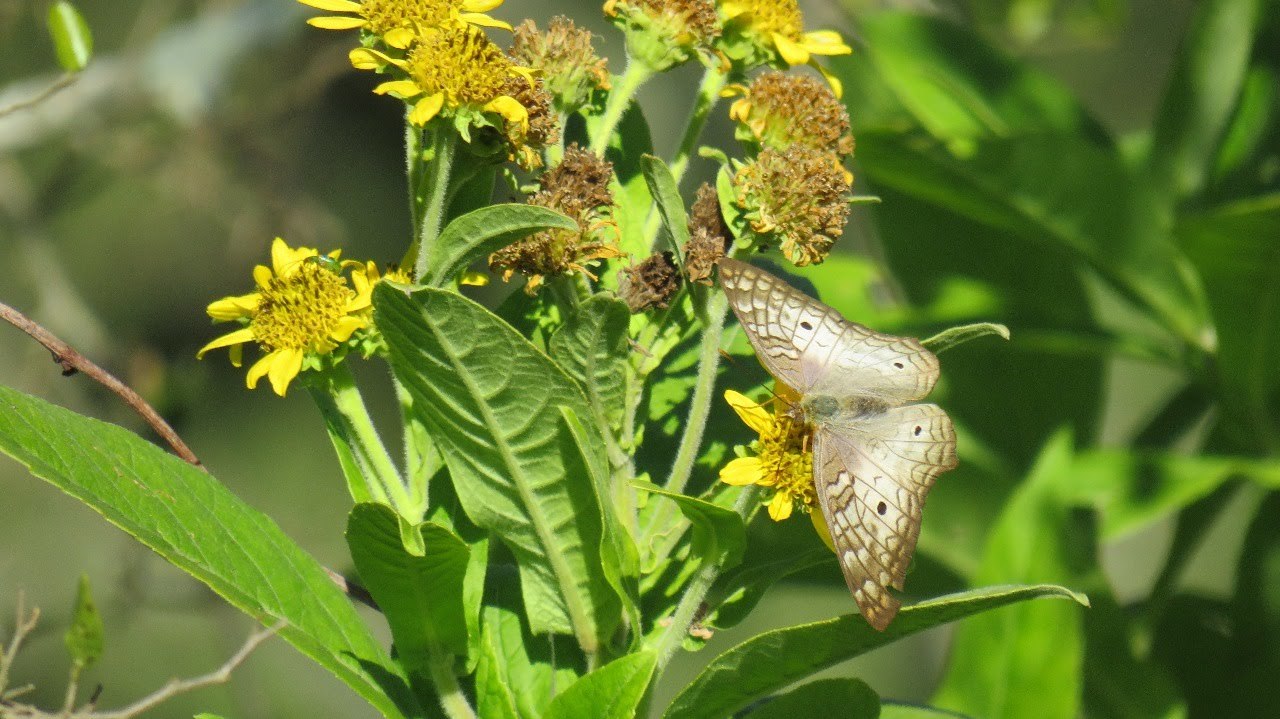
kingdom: Animalia
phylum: Arthropoda
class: Insecta
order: Lepidoptera
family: Nymphalidae
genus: Anartia
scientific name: Anartia jatrophae
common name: White peacock
